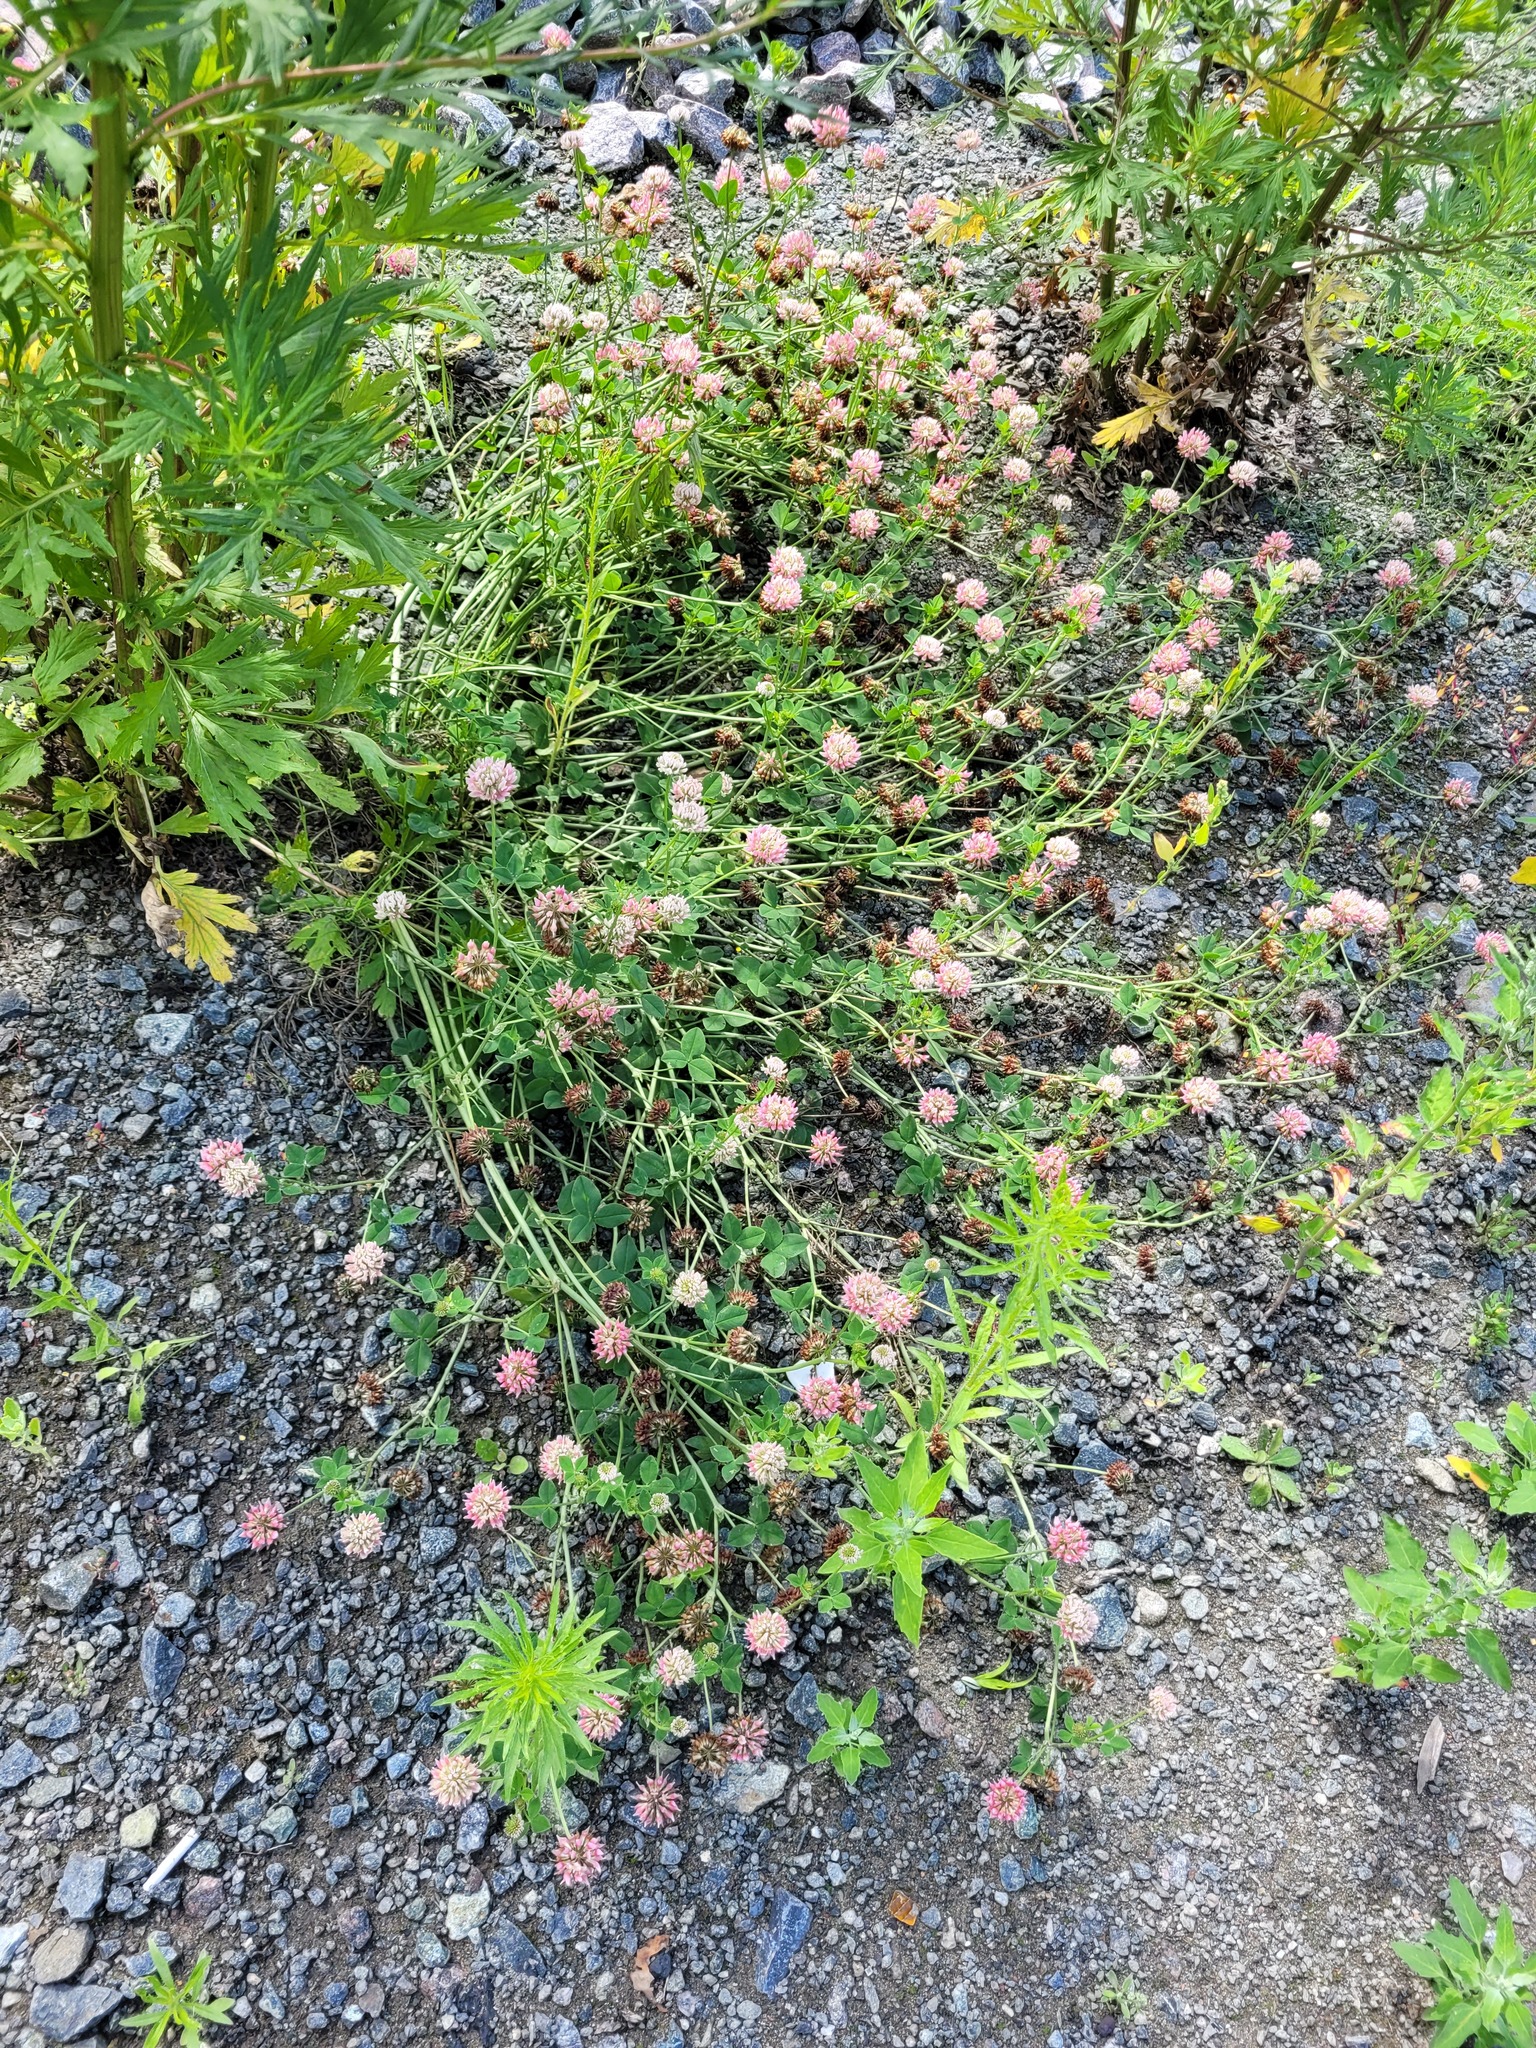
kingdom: Plantae
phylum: Tracheophyta
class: Magnoliopsida
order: Fabales
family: Fabaceae
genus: Trifolium
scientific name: Trifolium hybridum
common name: Alsike clover
